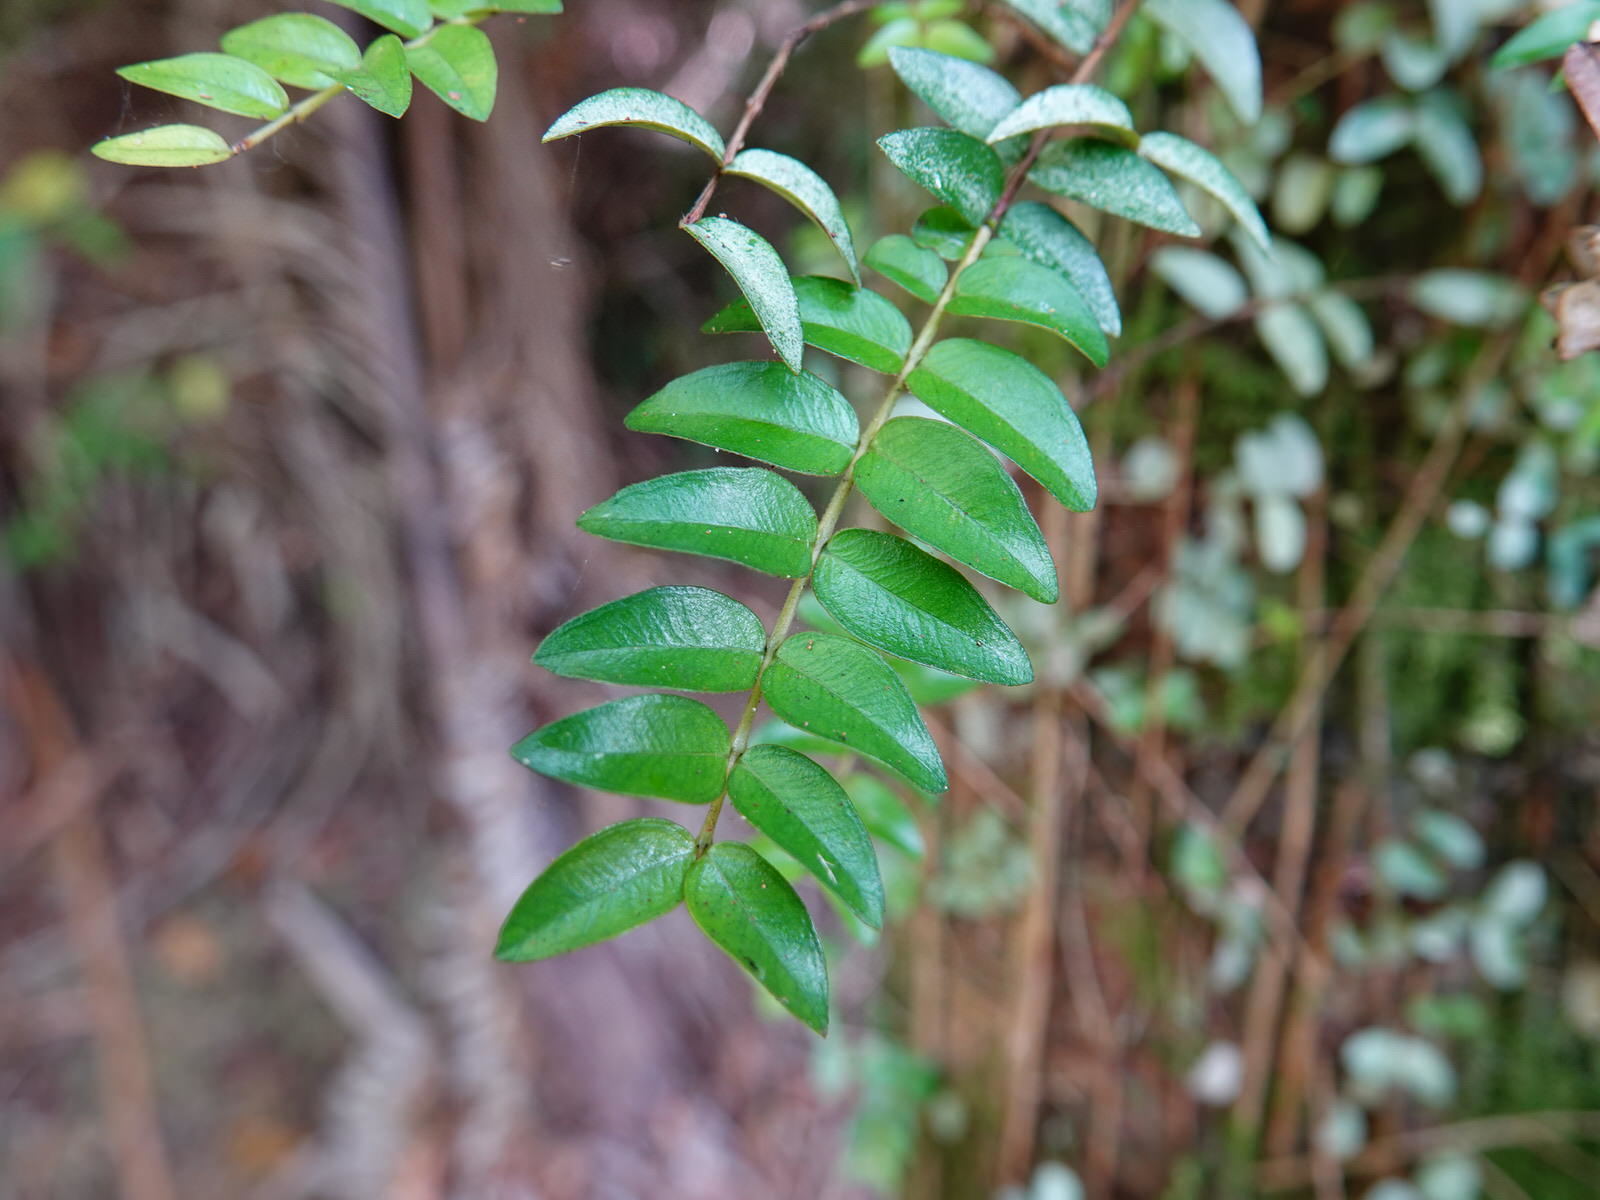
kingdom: Plantae
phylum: Tracheophyta
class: Magnoliopsida
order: Myrtales
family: Myrtaceae
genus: Metrosideros
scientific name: Metrosideros diffusa
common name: Small ratavine
